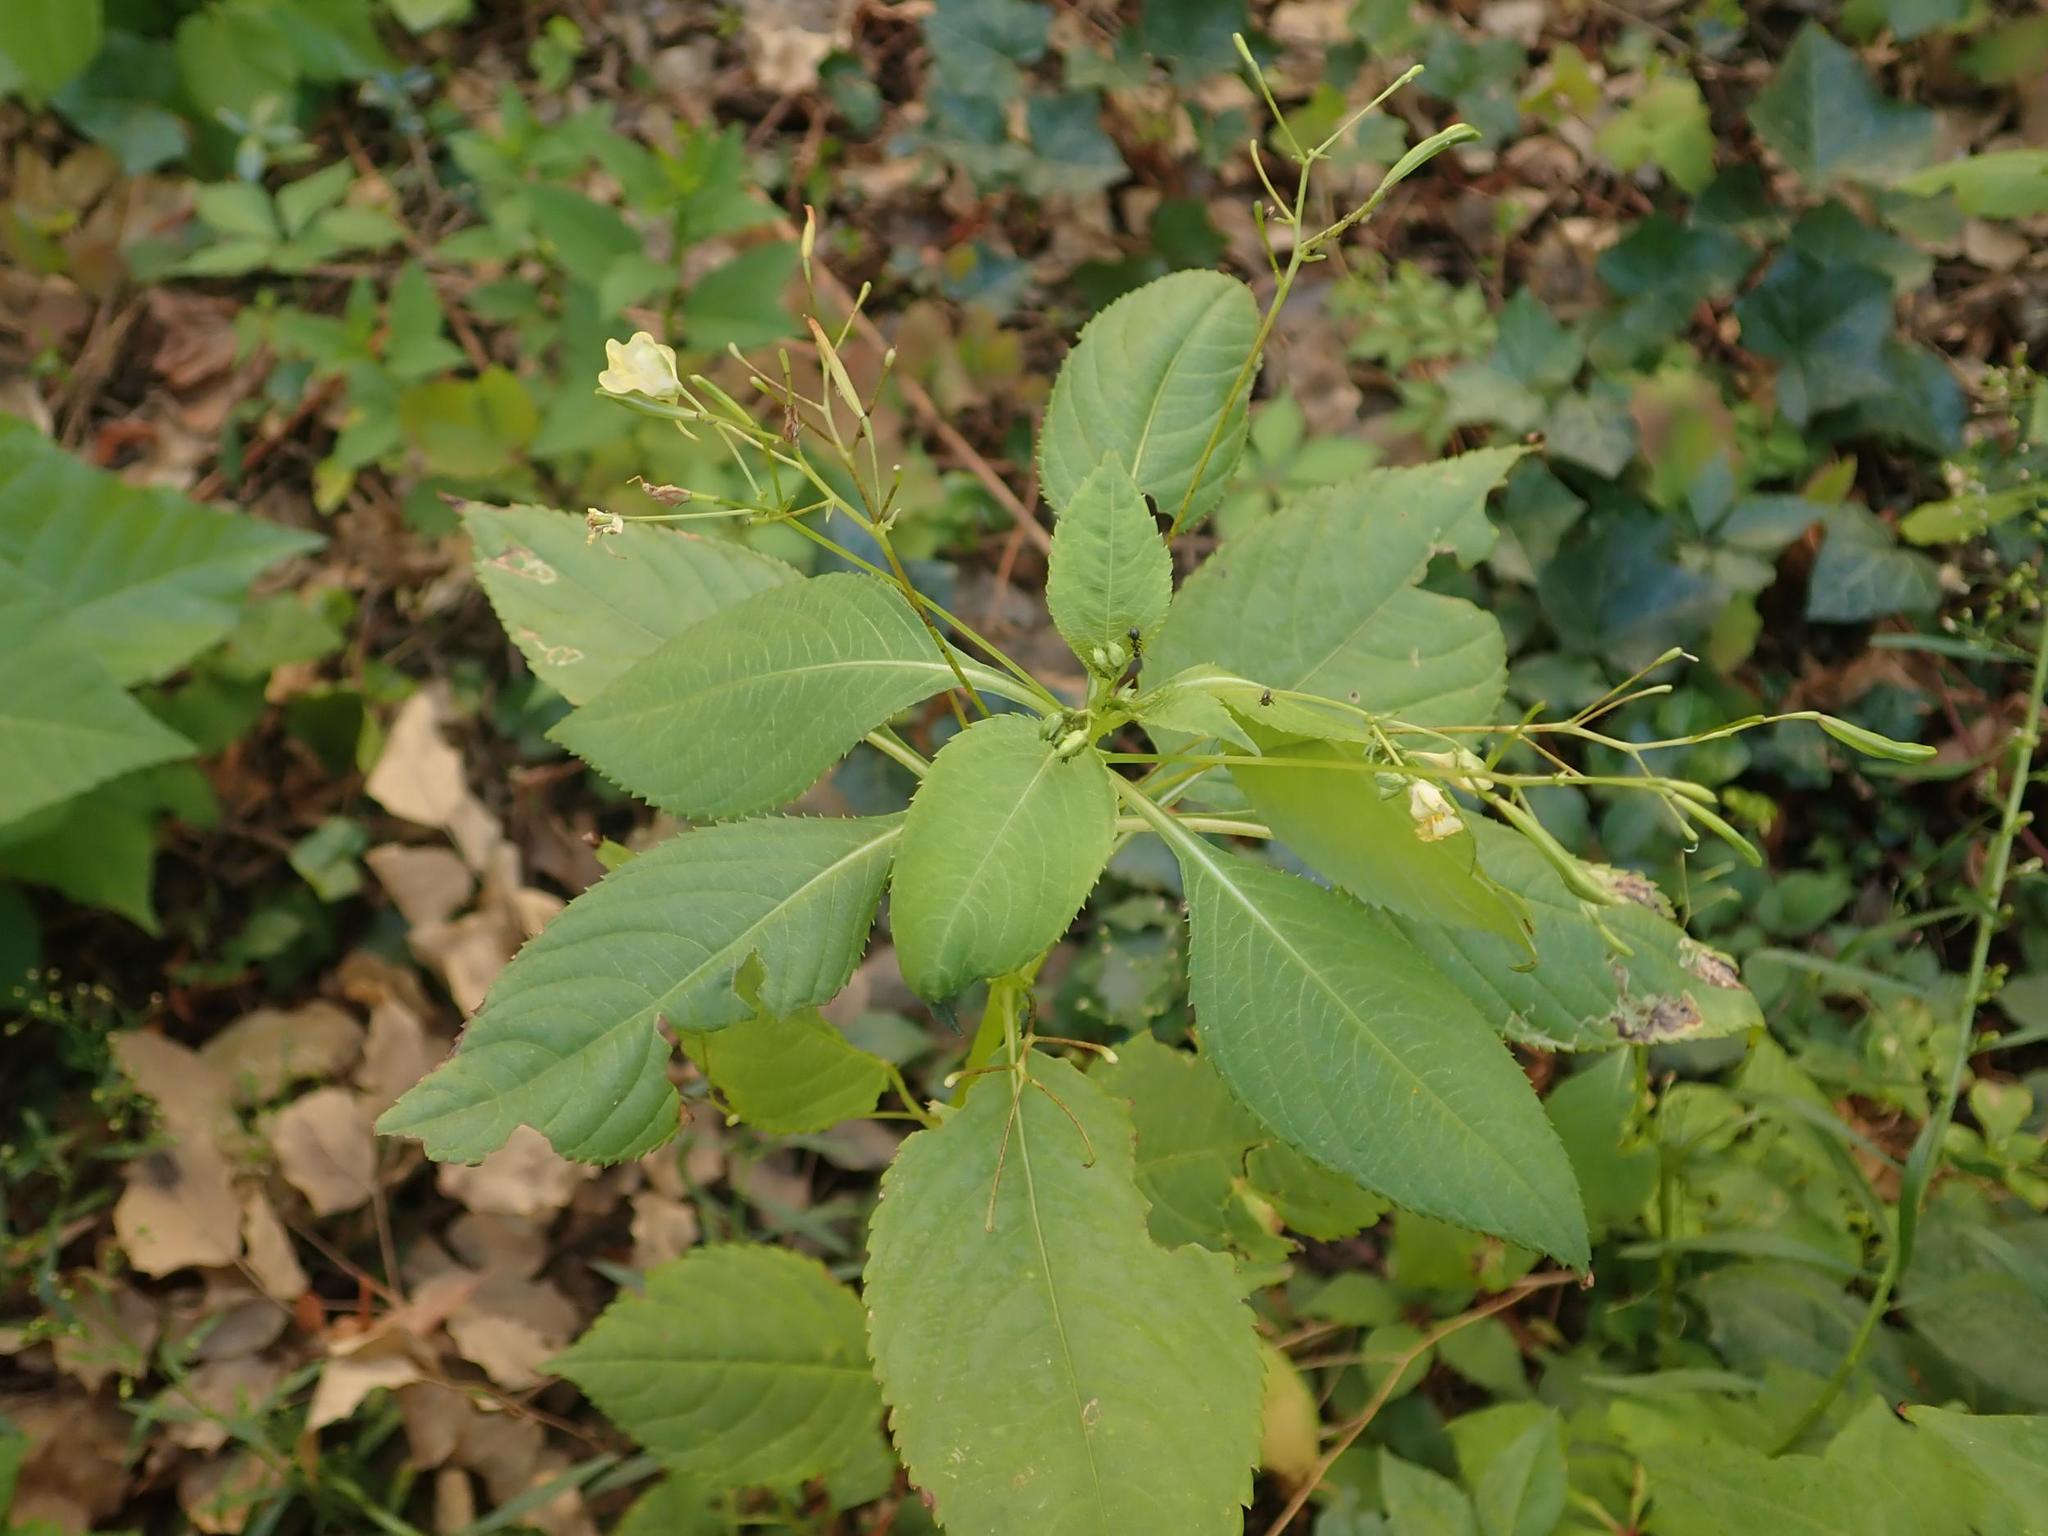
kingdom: Plantae
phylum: Tracheophyta
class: Magnoliopsida
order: Ericales
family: Balsaminaceae
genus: Impatiens
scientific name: Impatiens parviflora
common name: Small balsam
